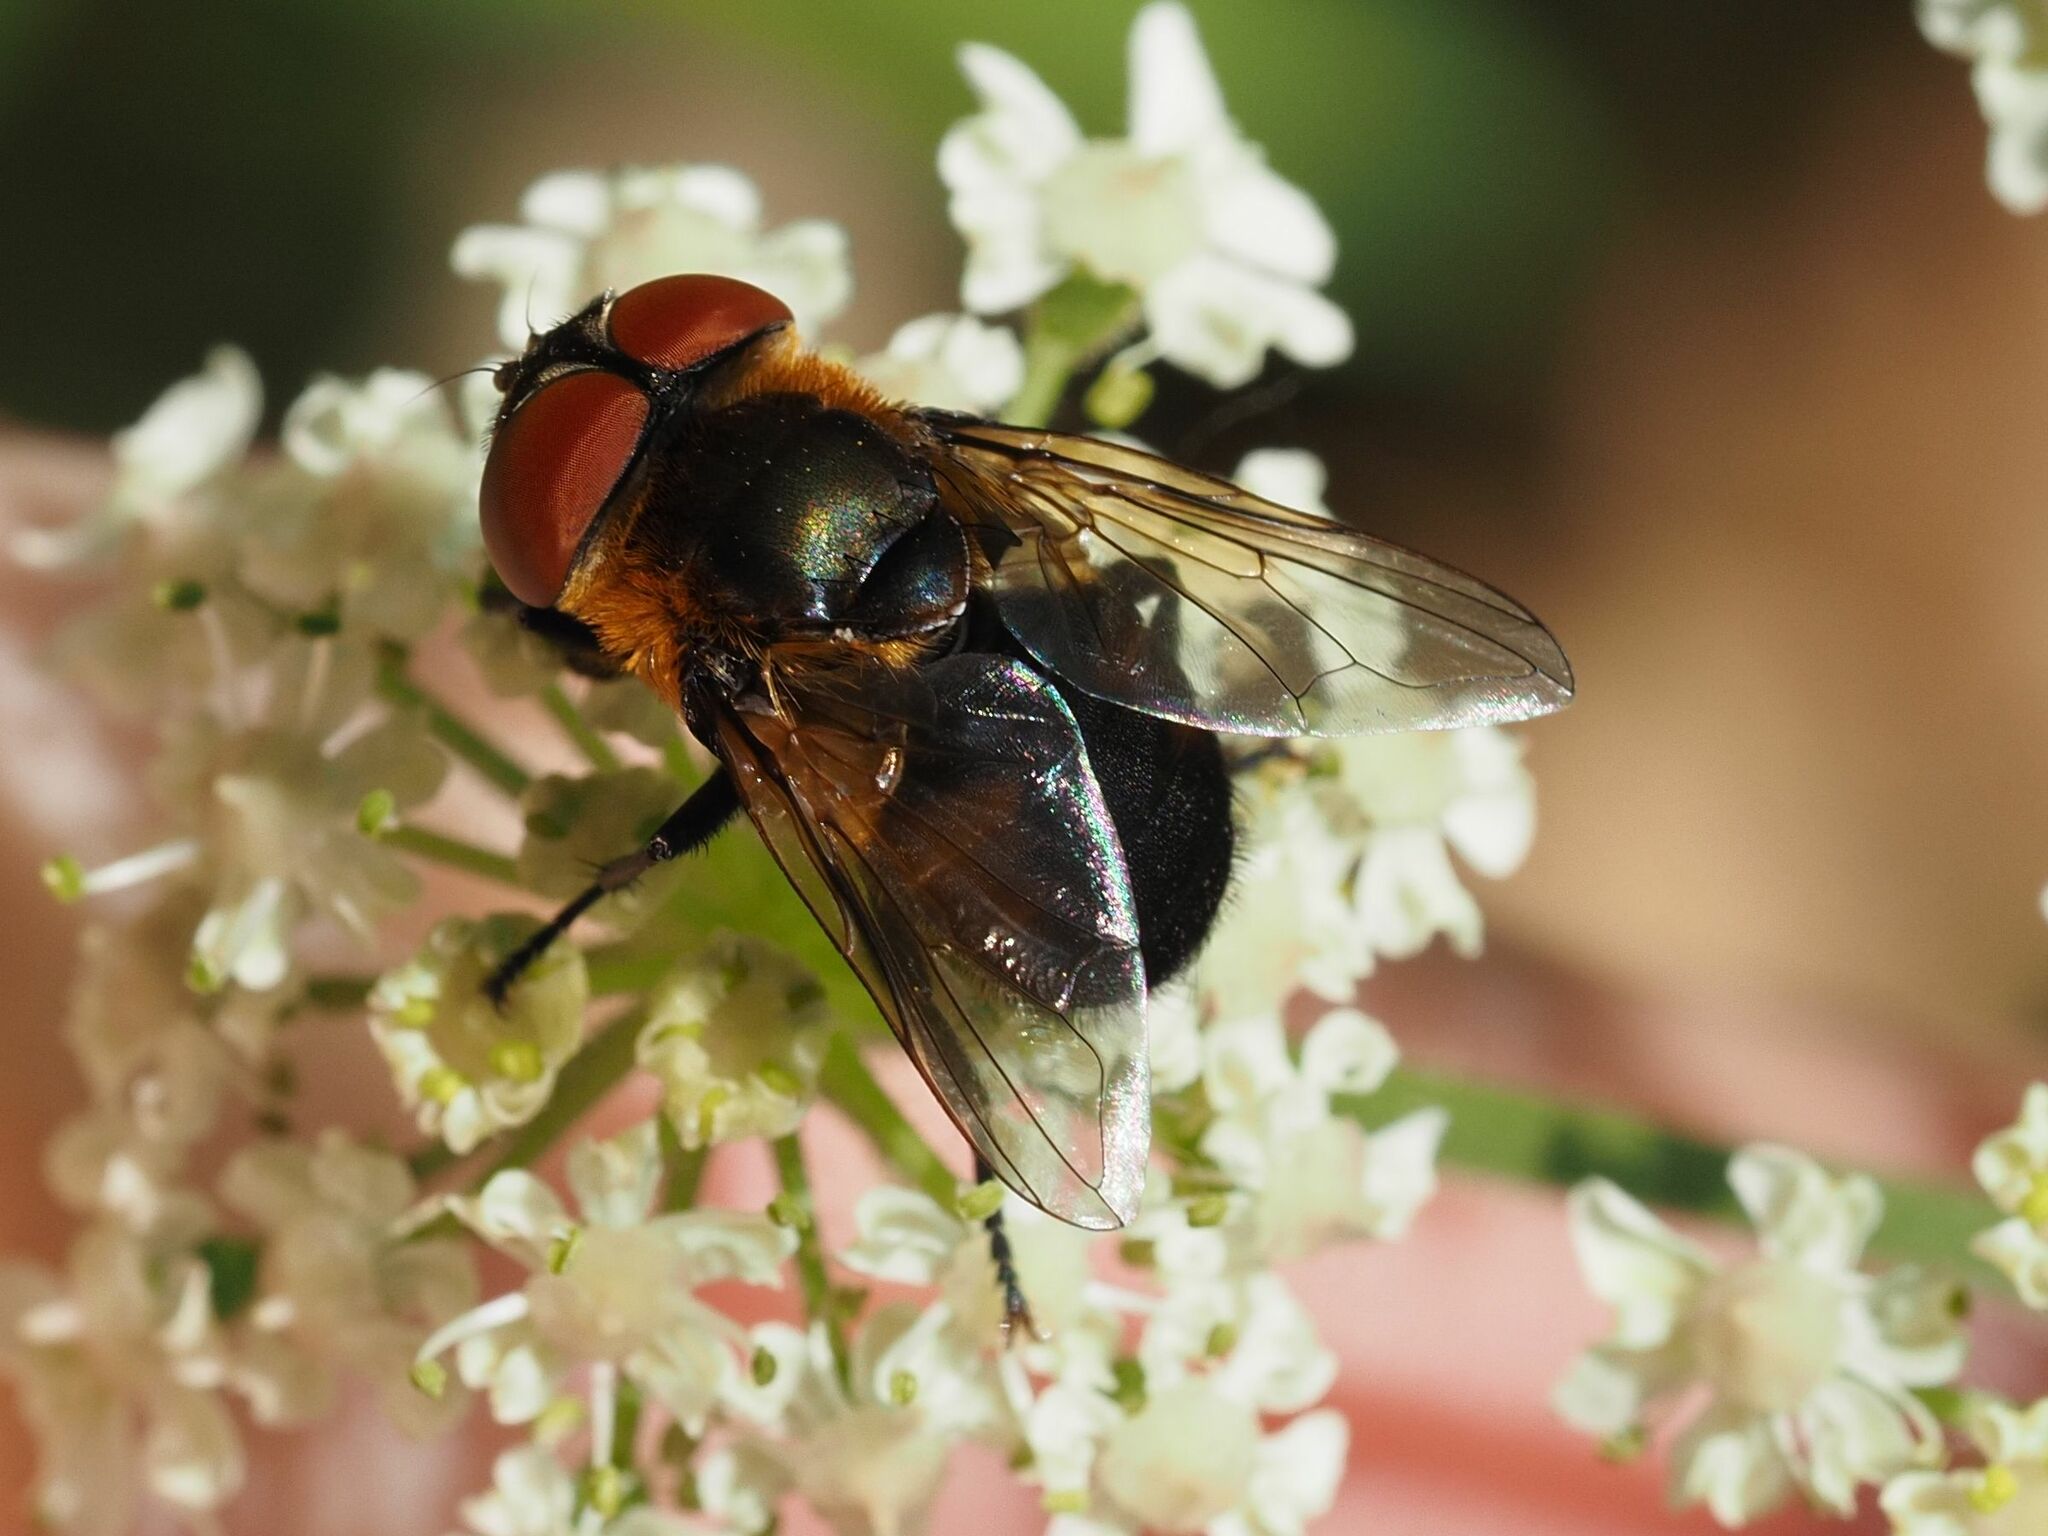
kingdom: Animalia
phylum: Arthropoda
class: Insecta
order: Diptera
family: Tachinidae
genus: Phasia
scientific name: Phasia hemiptera
